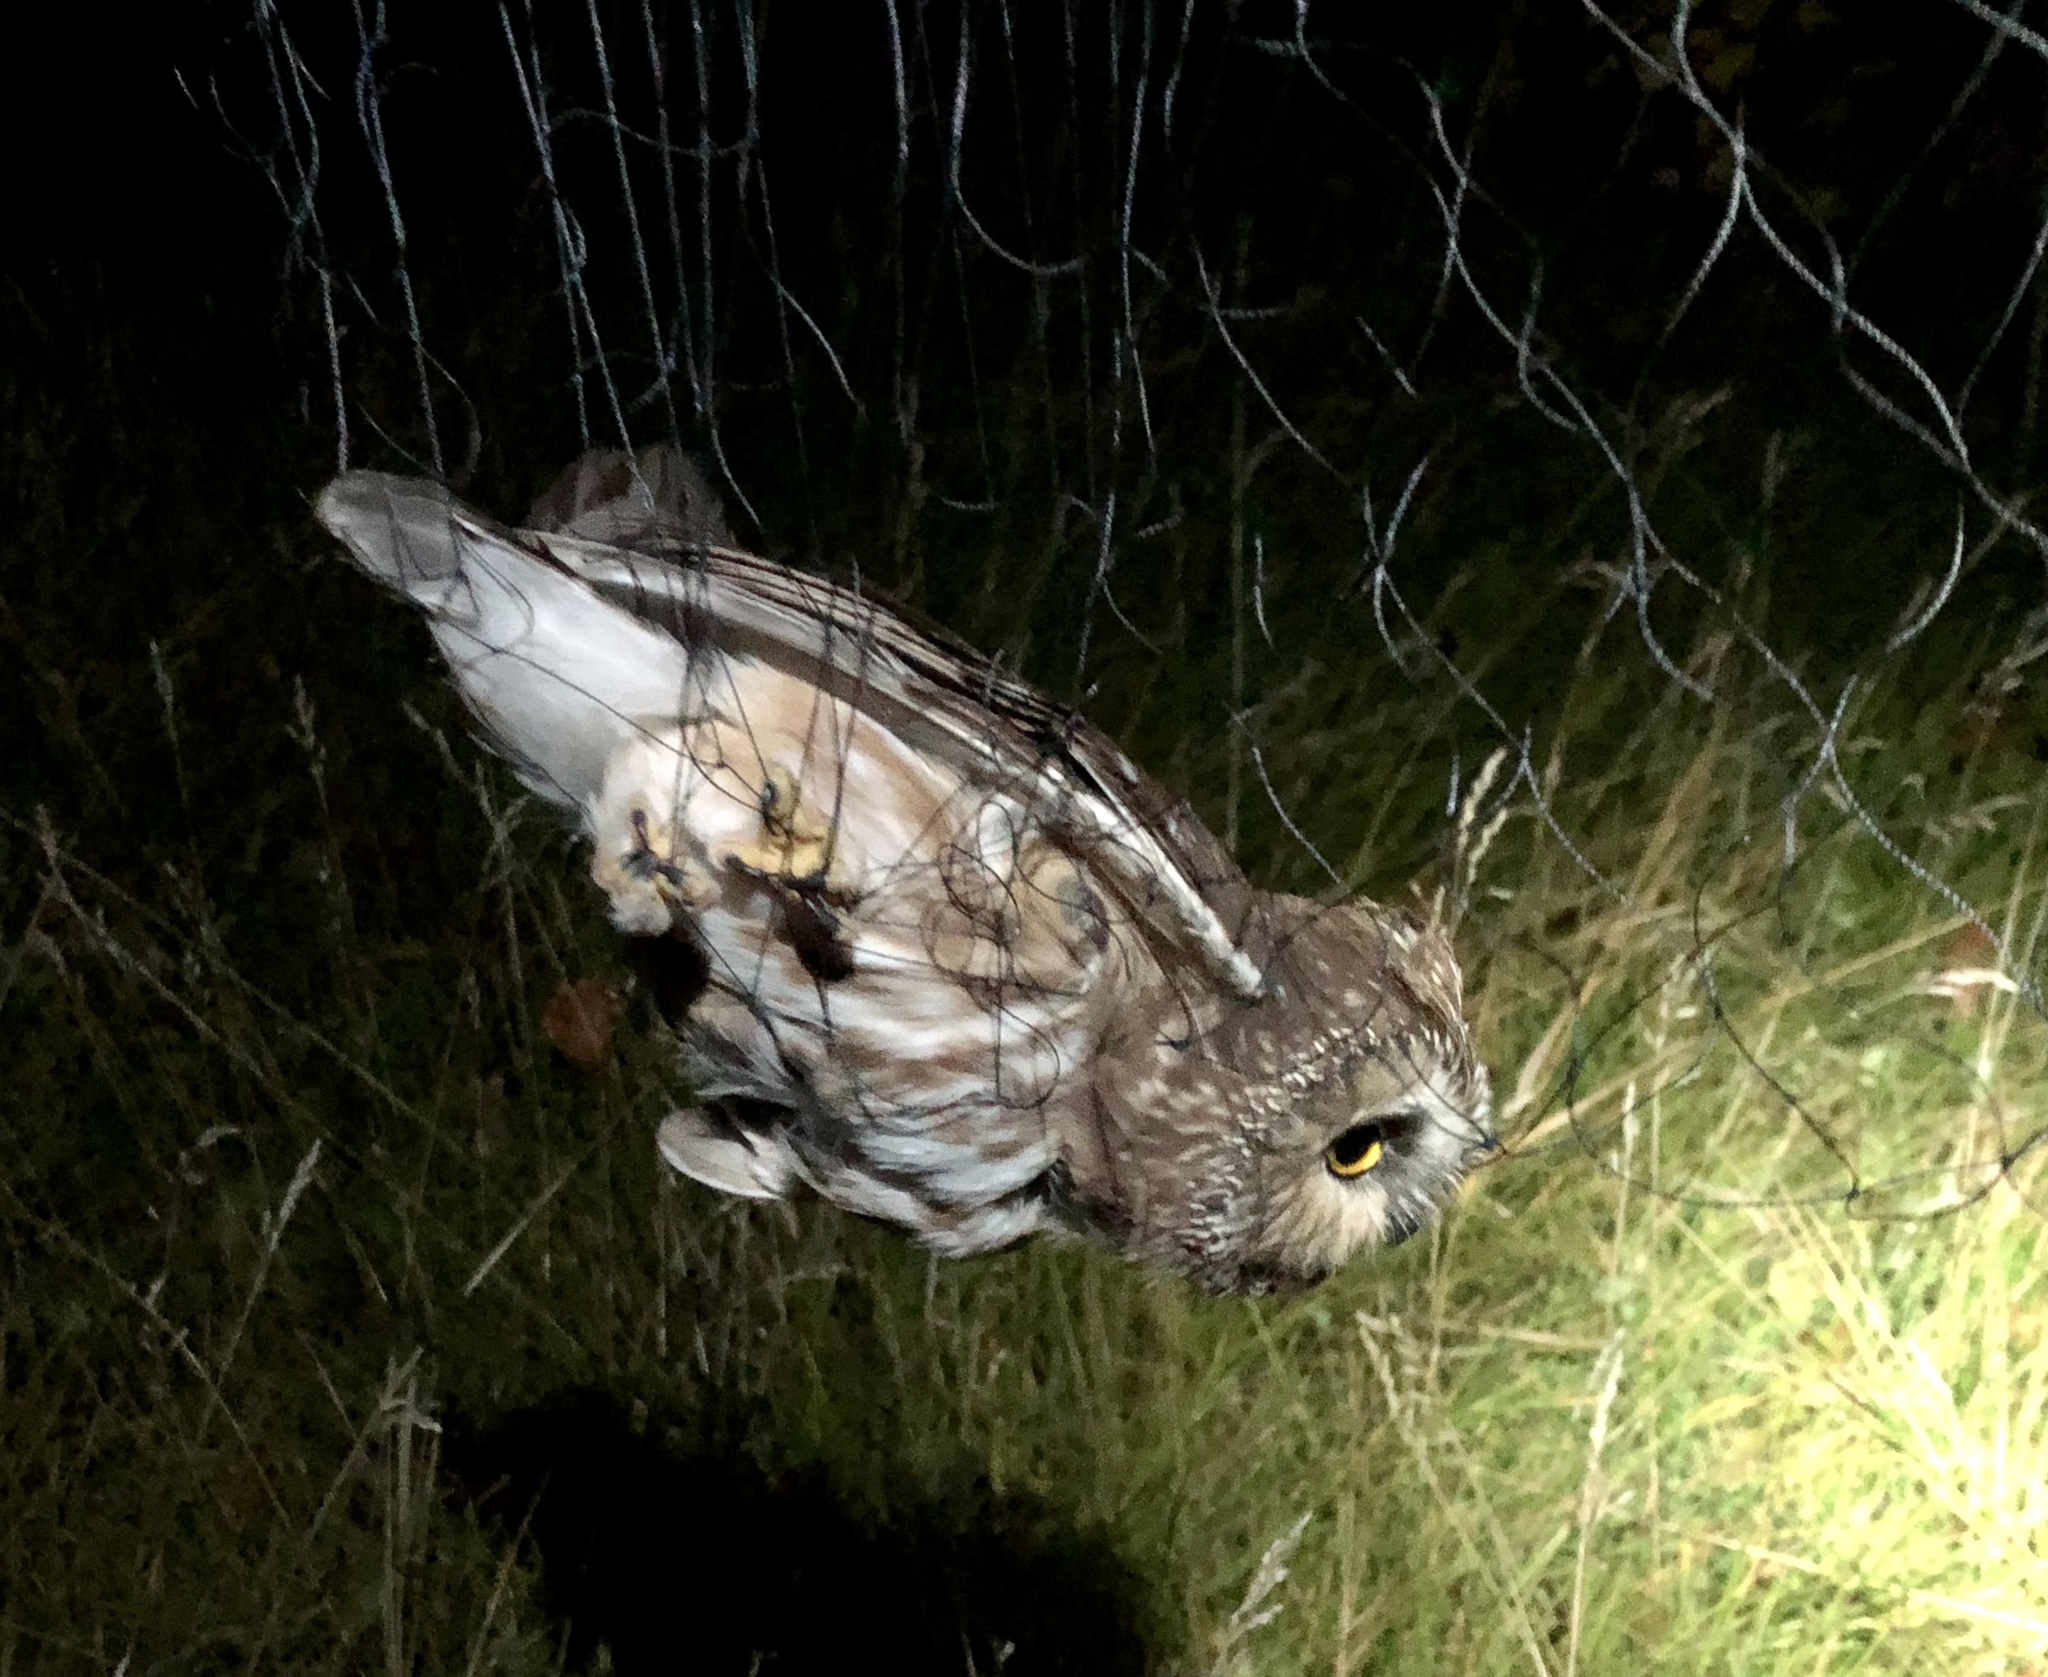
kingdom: Animalia
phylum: Chordata
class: Aves
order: Strigiformes
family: Strigidae
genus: Aegolius
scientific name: Aegolius acadicus
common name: Northern saw-whet owl
